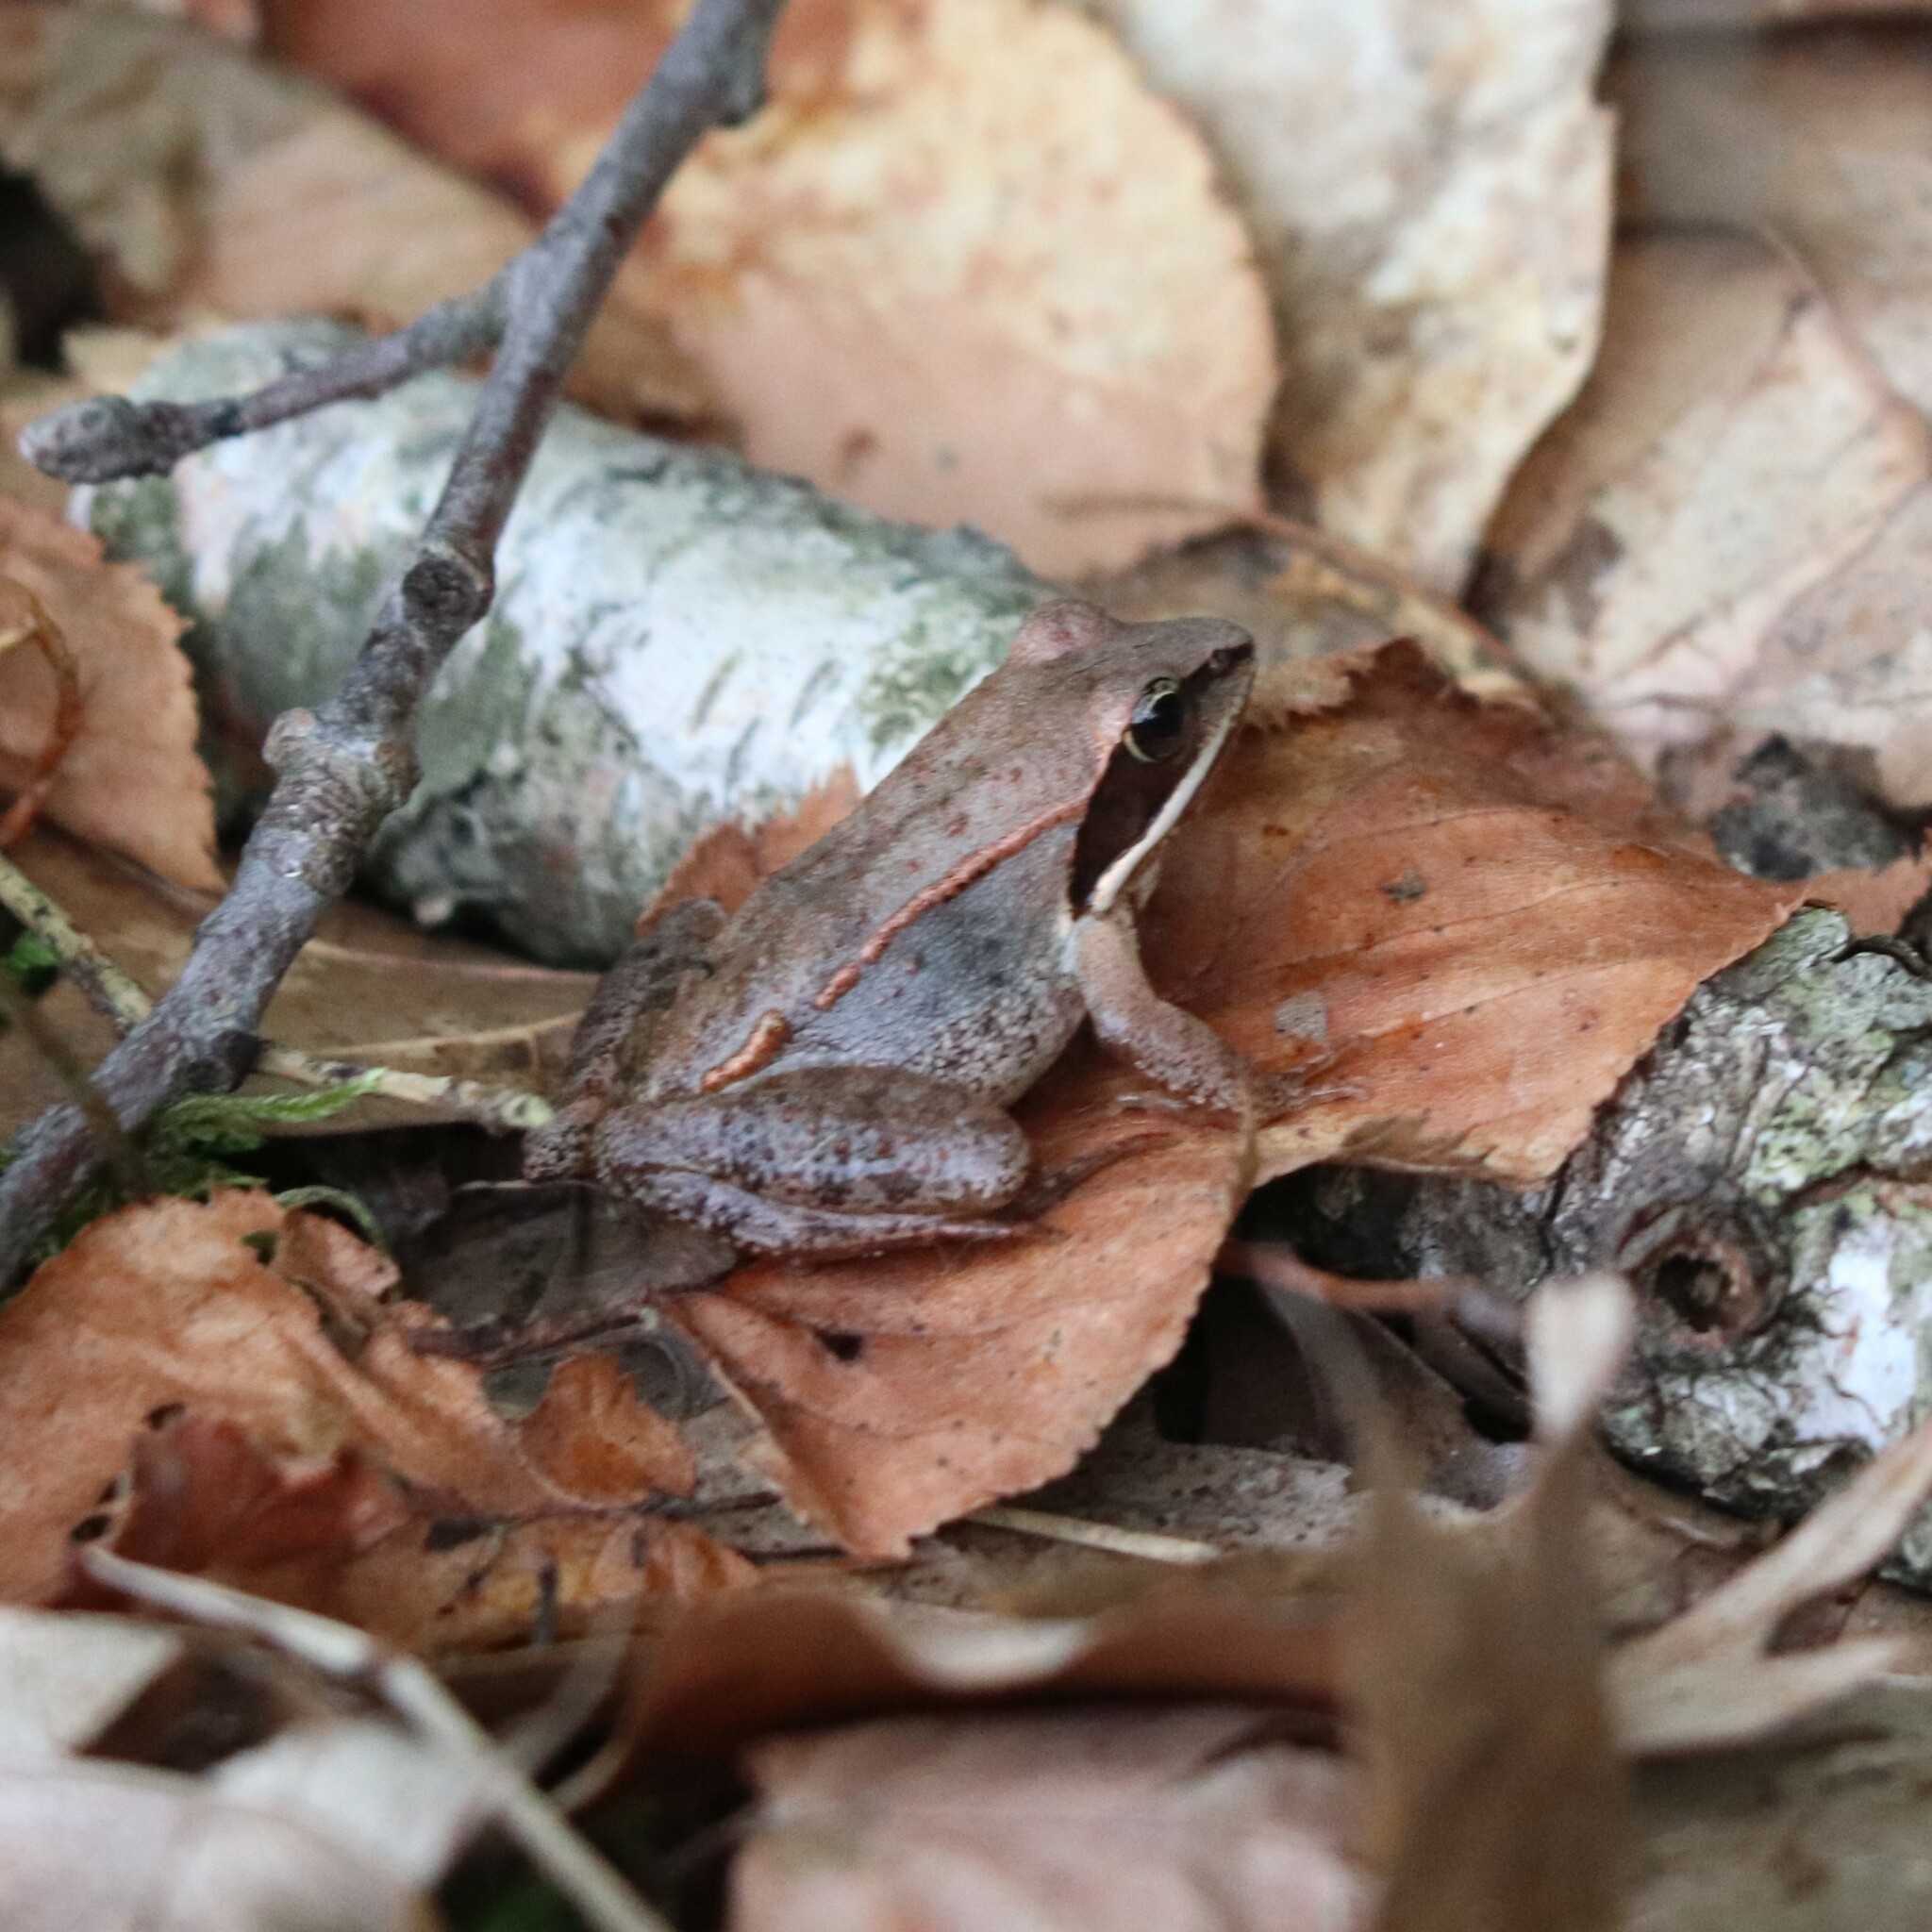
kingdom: Animalia
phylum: Chordata
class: Amphibia
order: Anura
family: Ranidae
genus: Lithobates
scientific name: Lithobates sylvaticus
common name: Wood frog
